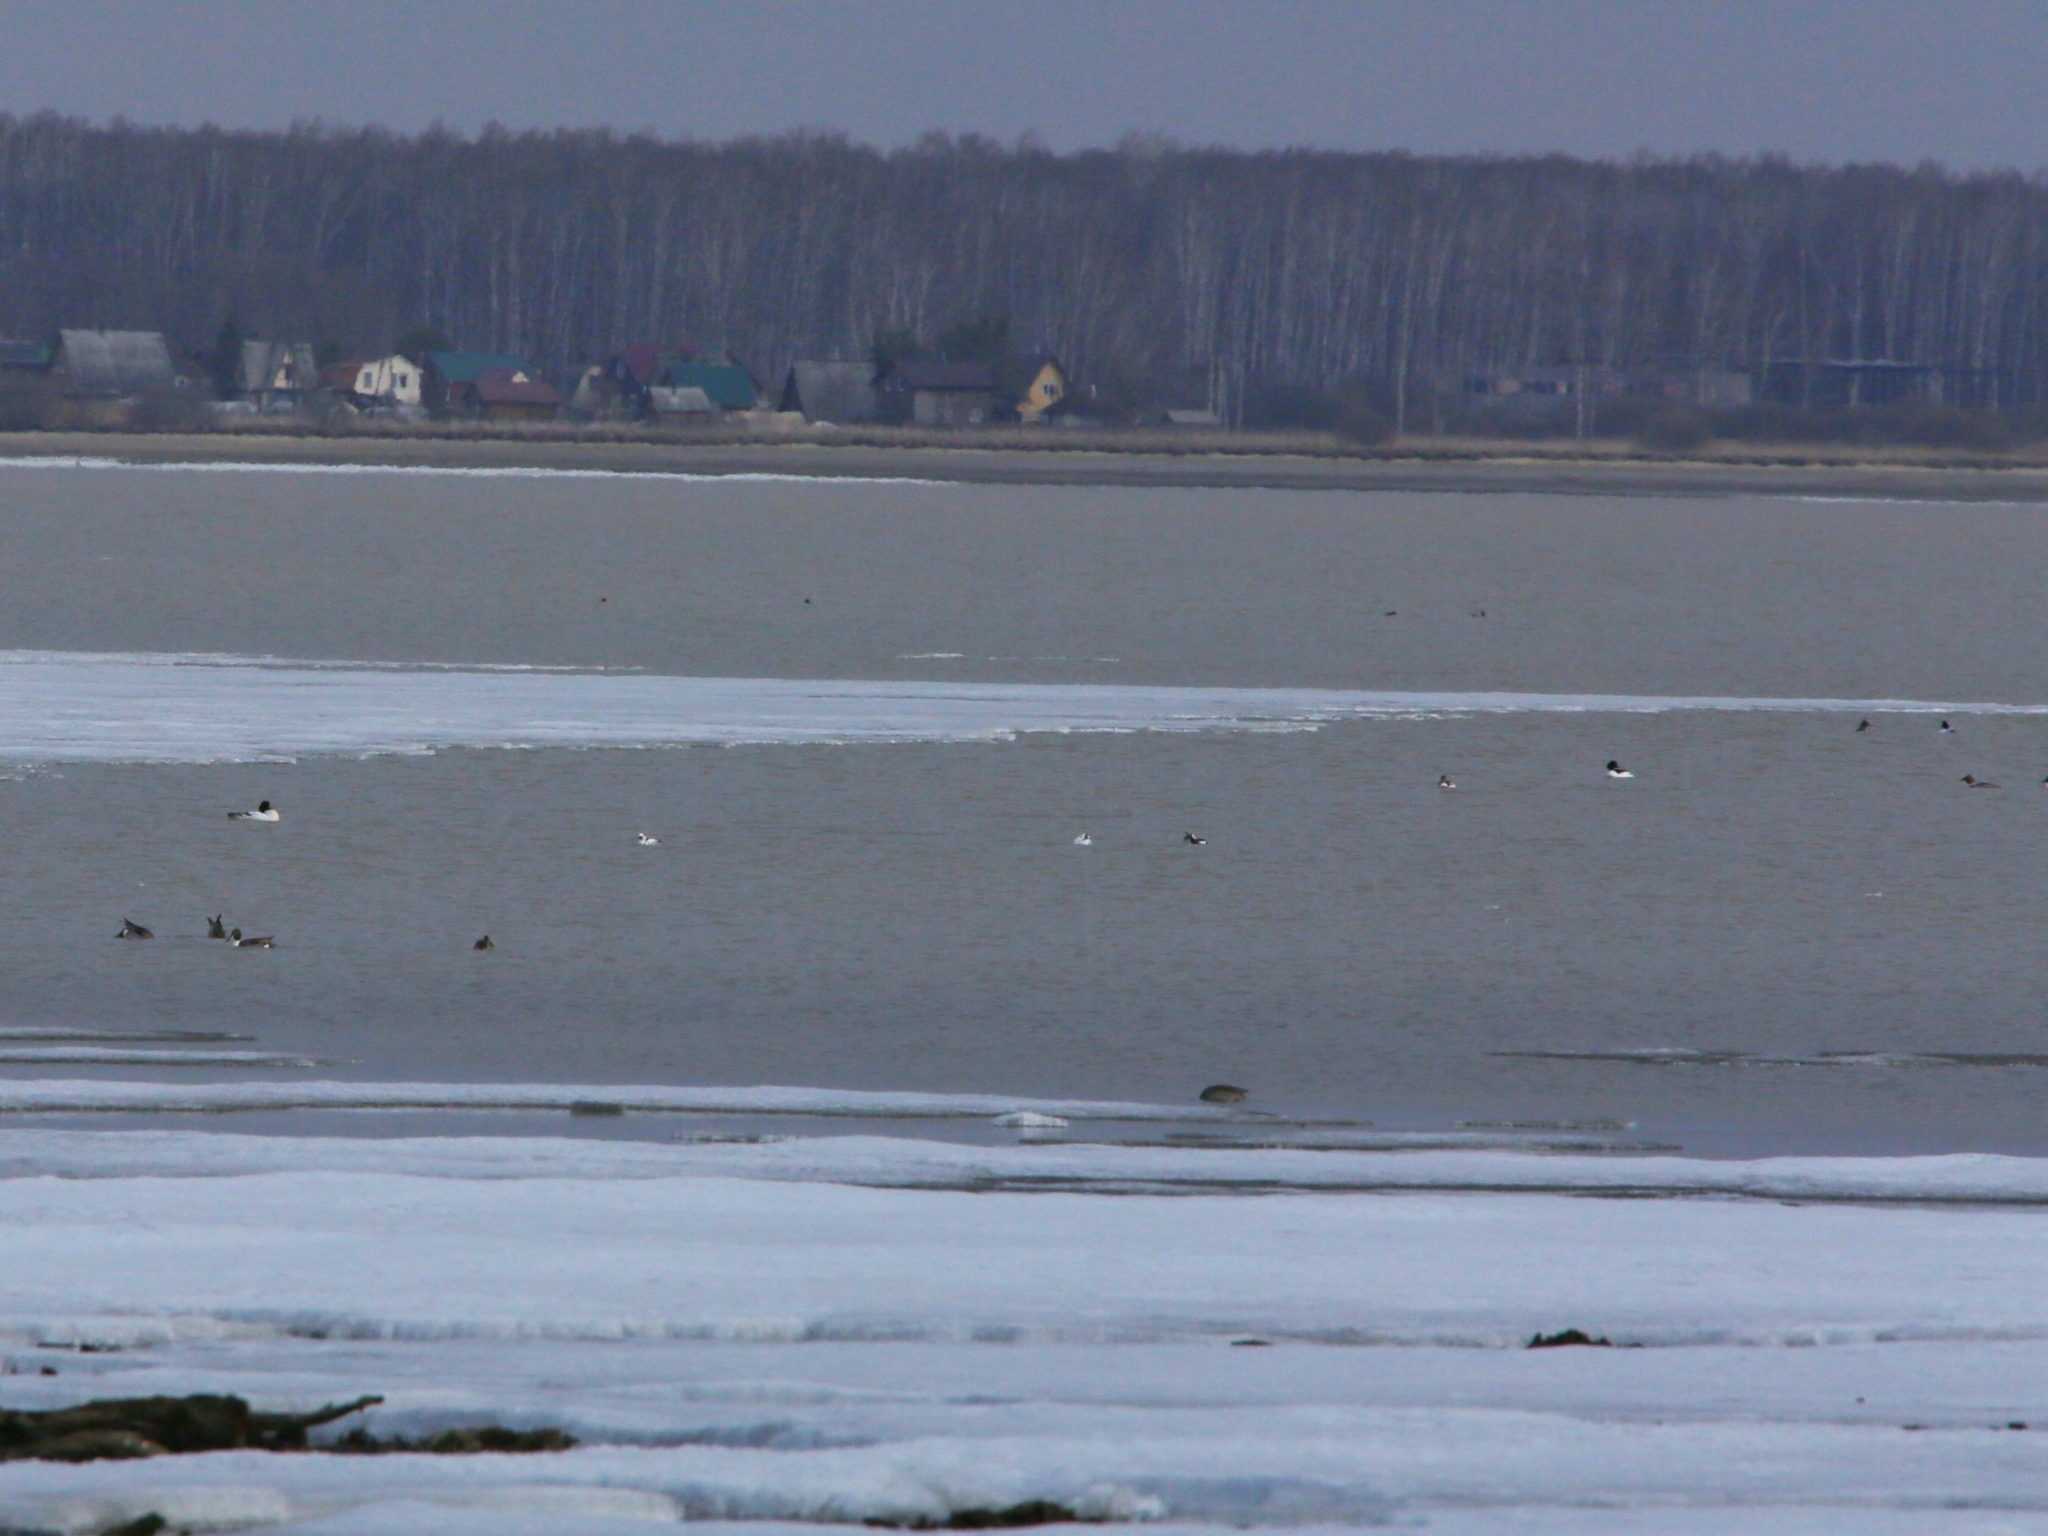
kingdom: Animalia
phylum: Chordata
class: Aves
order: Anseriformes
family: Anatidae
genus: Mergellus
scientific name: Mergellus albellus
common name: Smew
